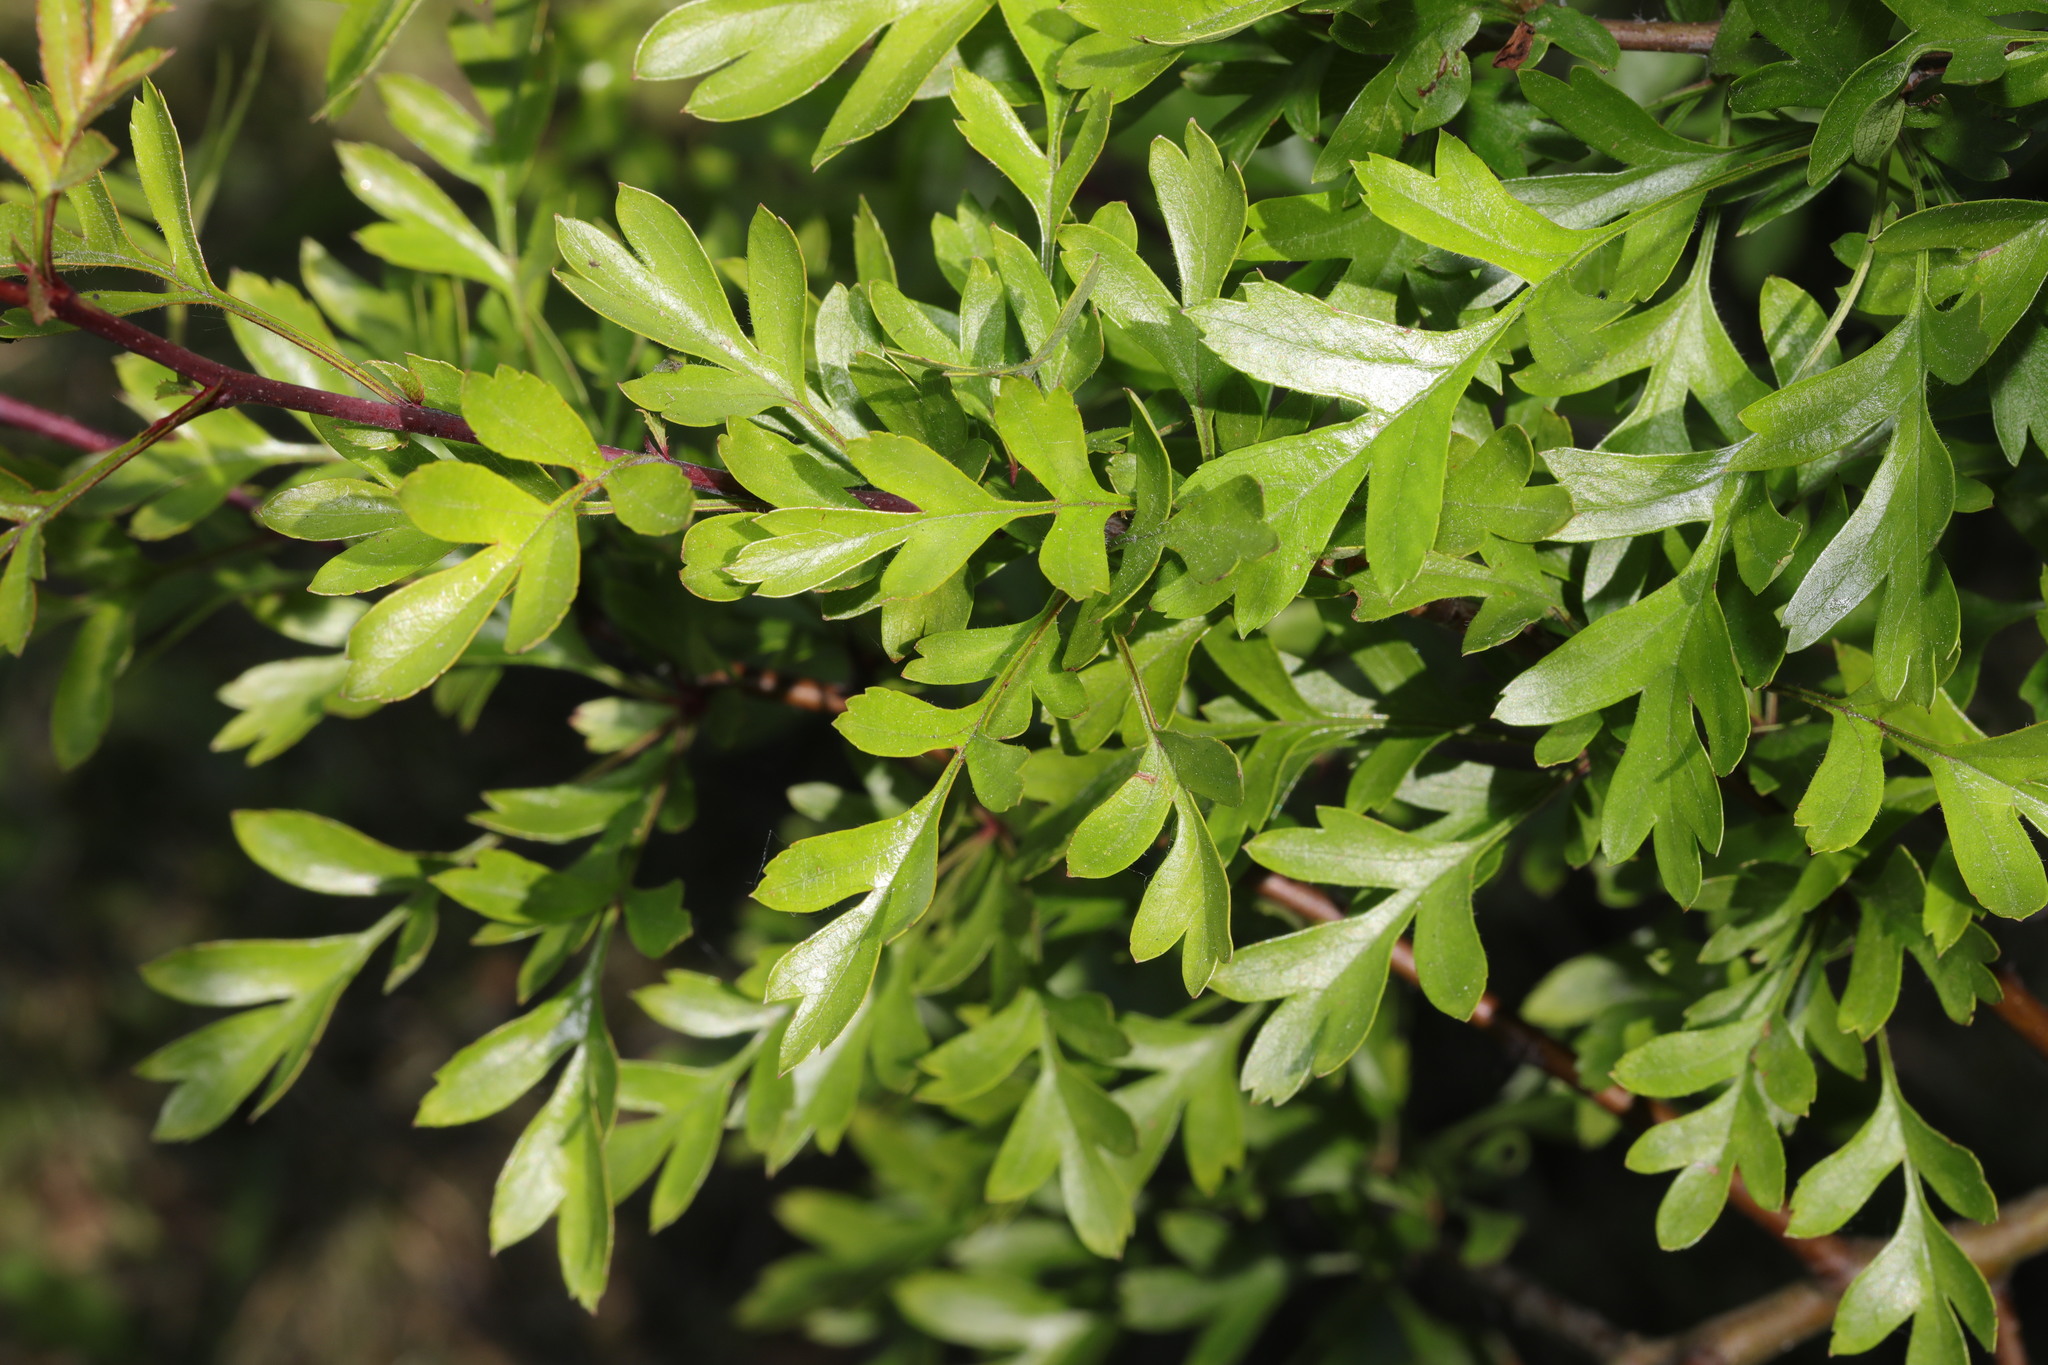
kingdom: Plantae
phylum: Tracheophyta
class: Magnoliopsida
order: Rosales
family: Rosaceae
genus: Crataegus
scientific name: Crataegus monogyna
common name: Hawthorn
